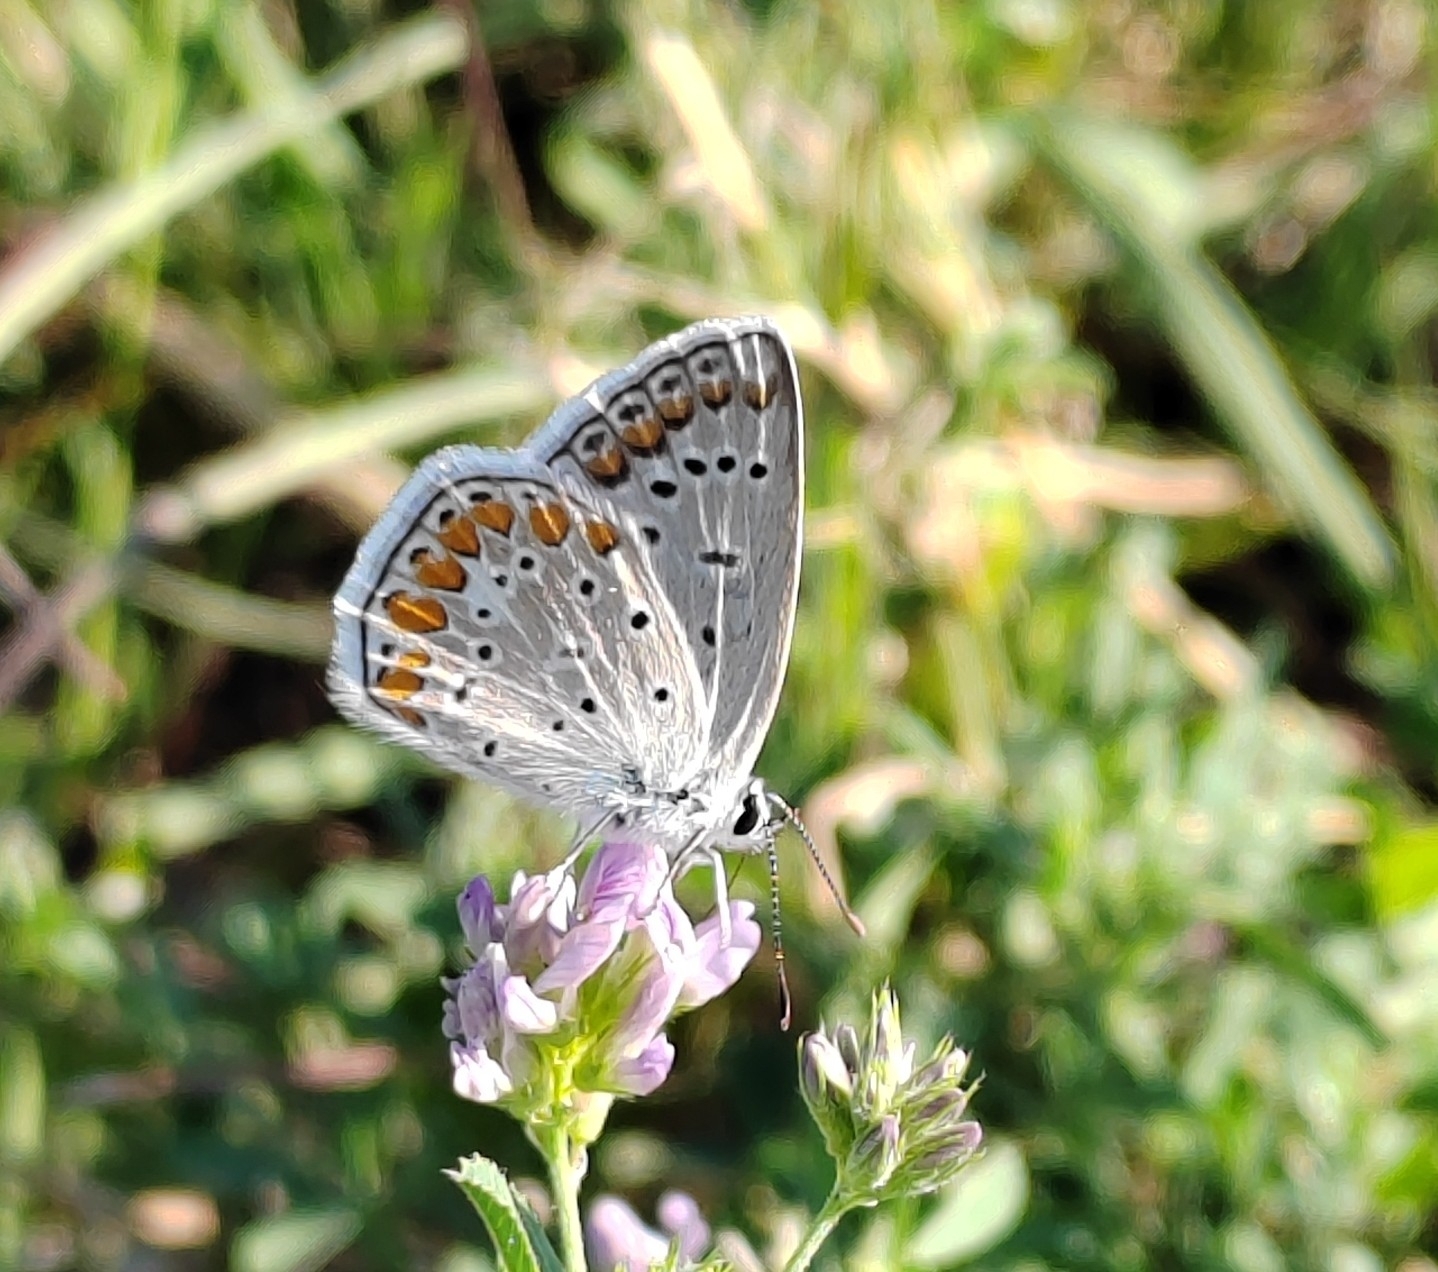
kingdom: Animalia
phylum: Arthropoda
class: Insecta
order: Lepidoptera
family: Lycaenidae
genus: Polyommatus
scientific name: Polyommatus icarus
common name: Common blue
